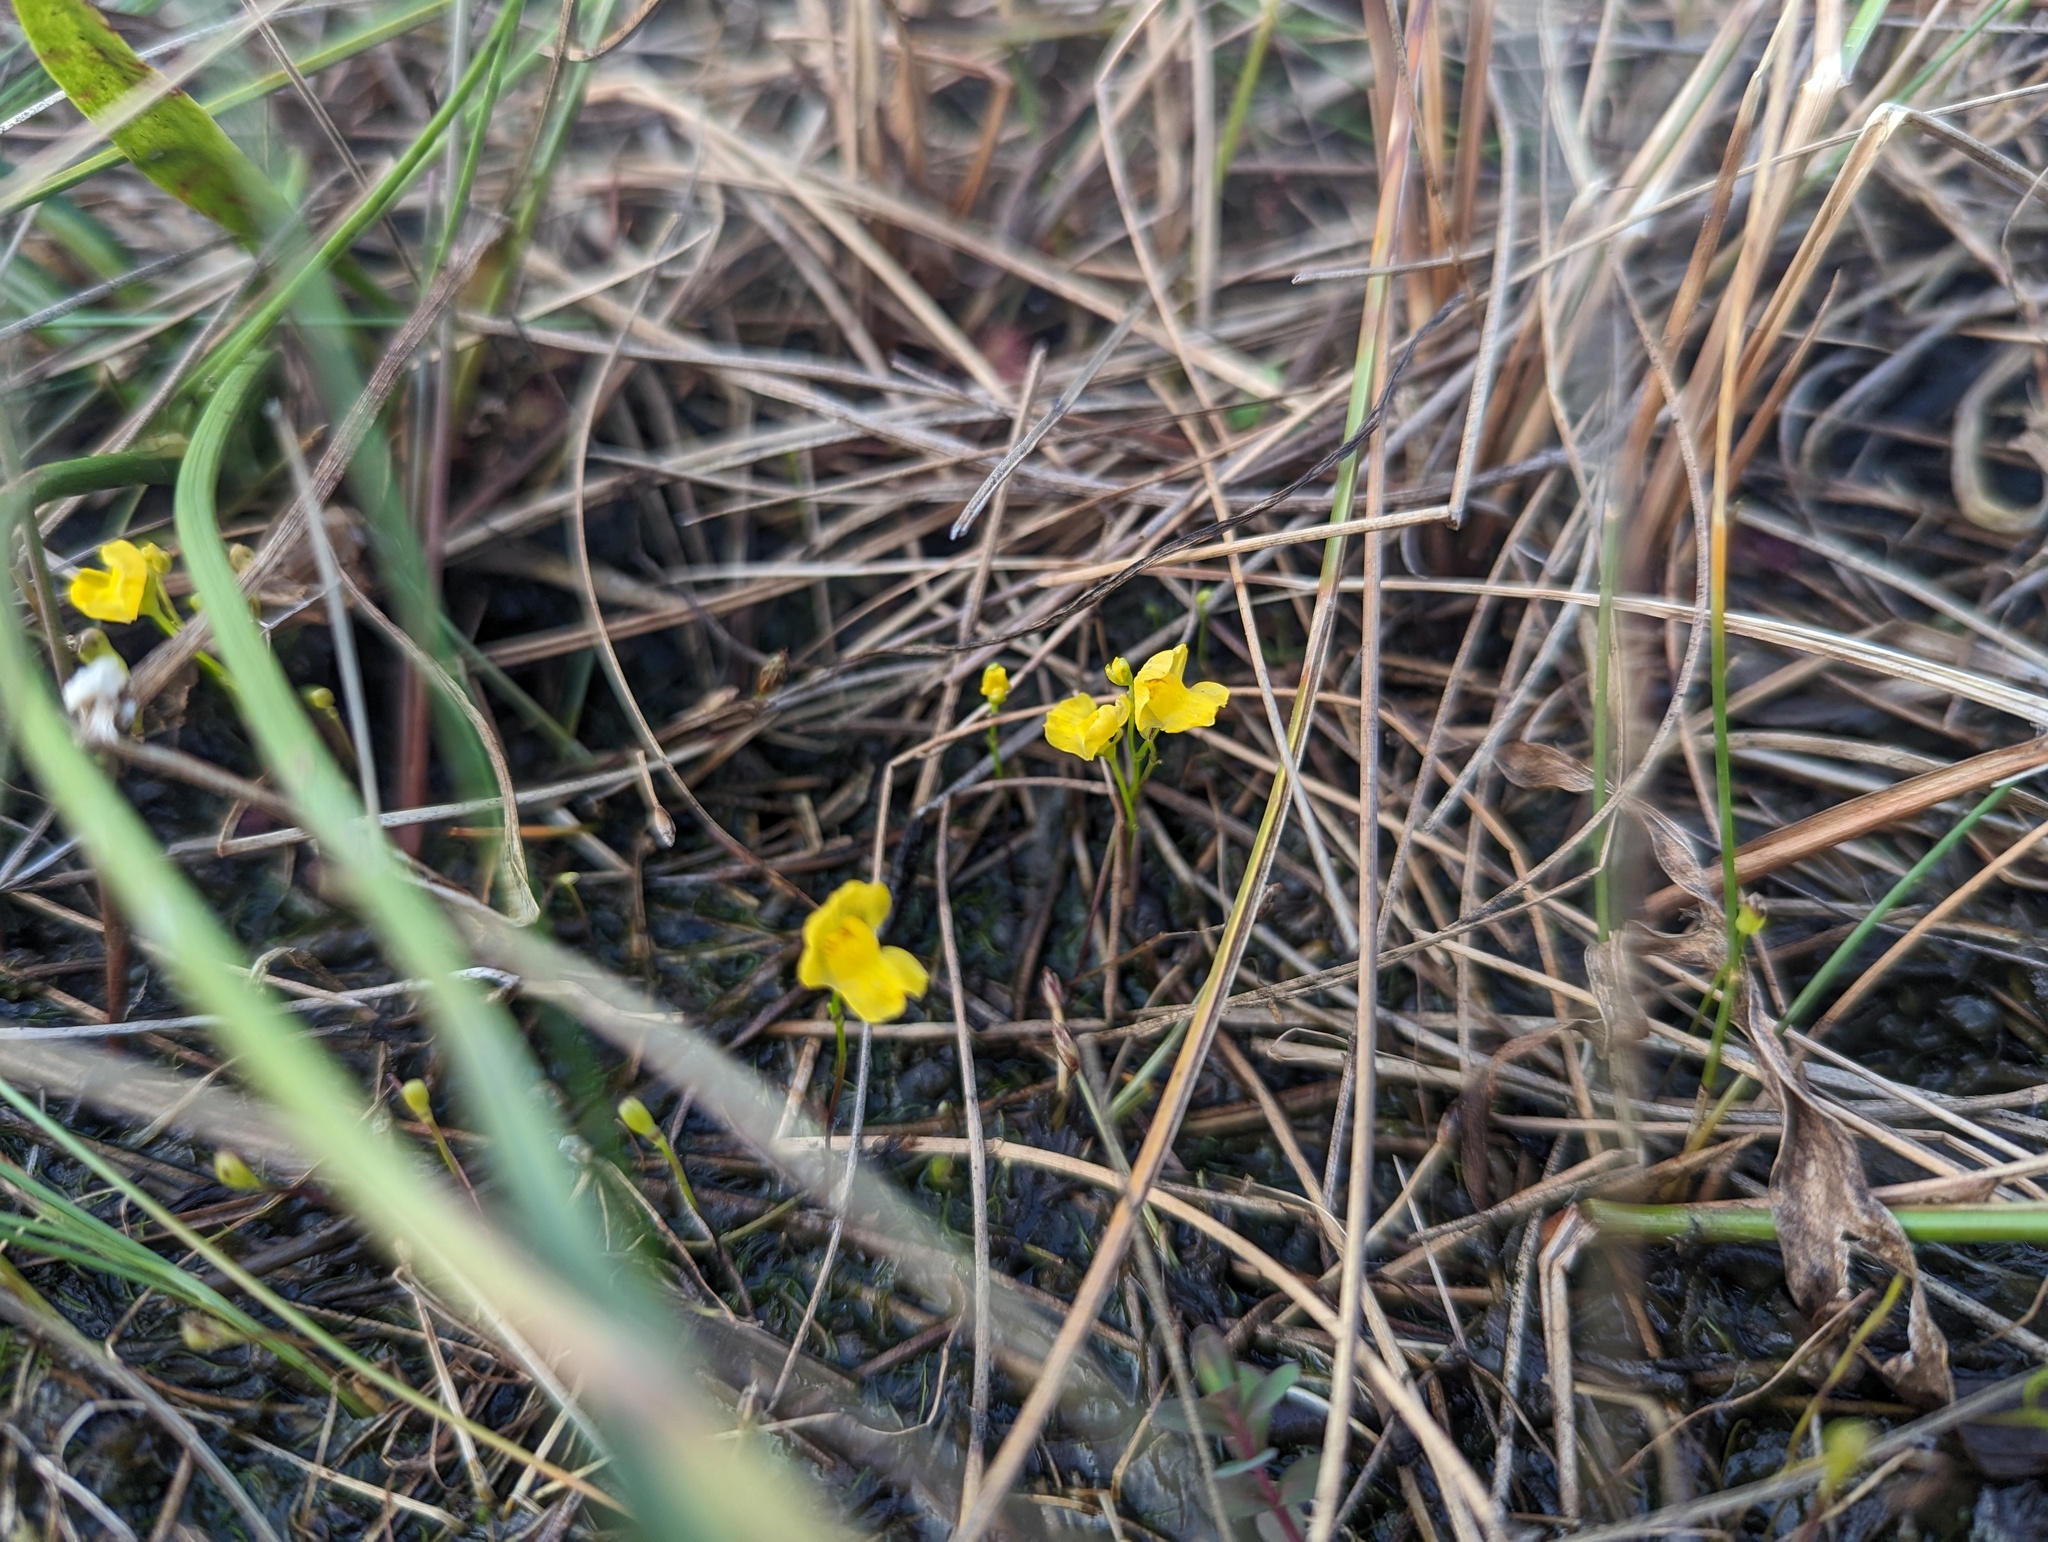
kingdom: Plantae
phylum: Tracheophyta
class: Magnoliopsida
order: Lamiales
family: Lentibulariaceae
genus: Utricularia
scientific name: Utricularia gibba
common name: Humped bladderwort
